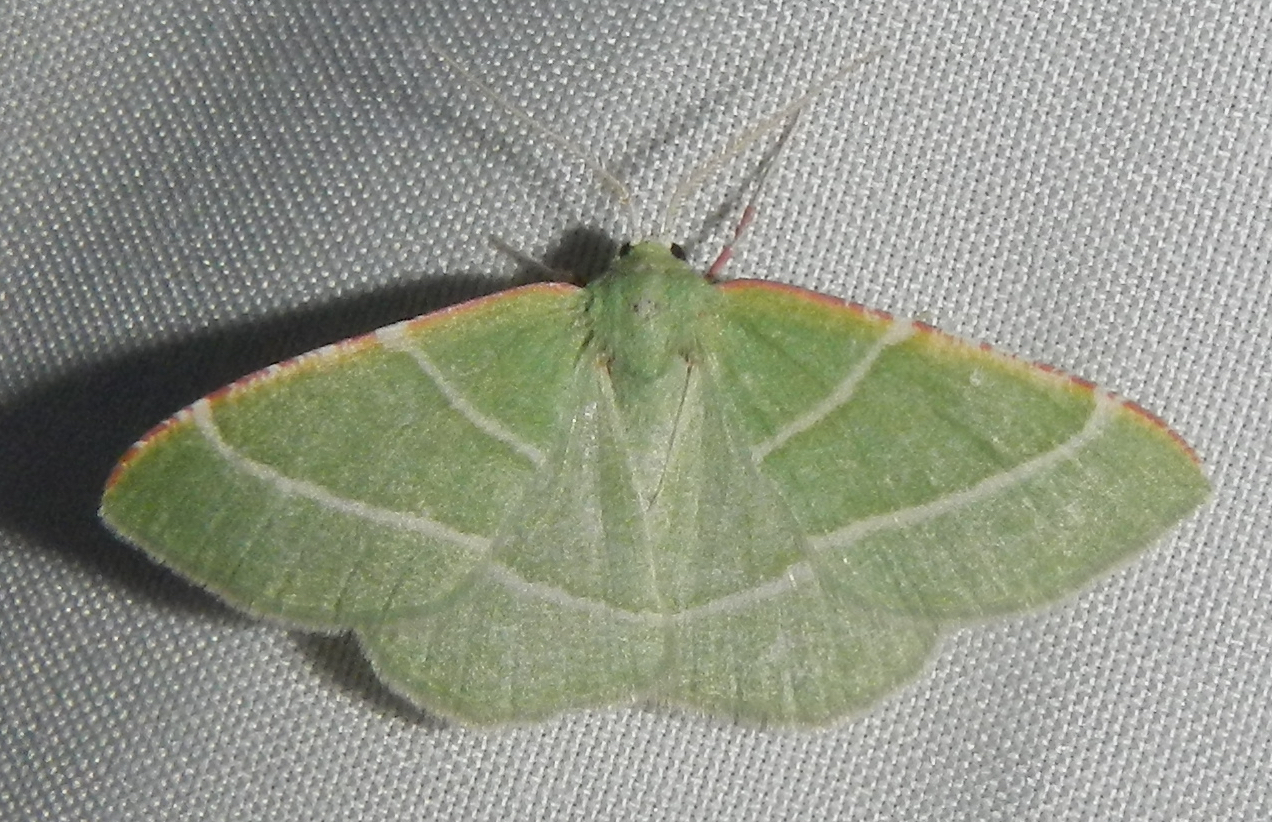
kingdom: Animalia
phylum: Arthropoda
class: Insecta
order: Lepidoptera
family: Geometridae
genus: Dichordophora
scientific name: Dichordophora phoenix
